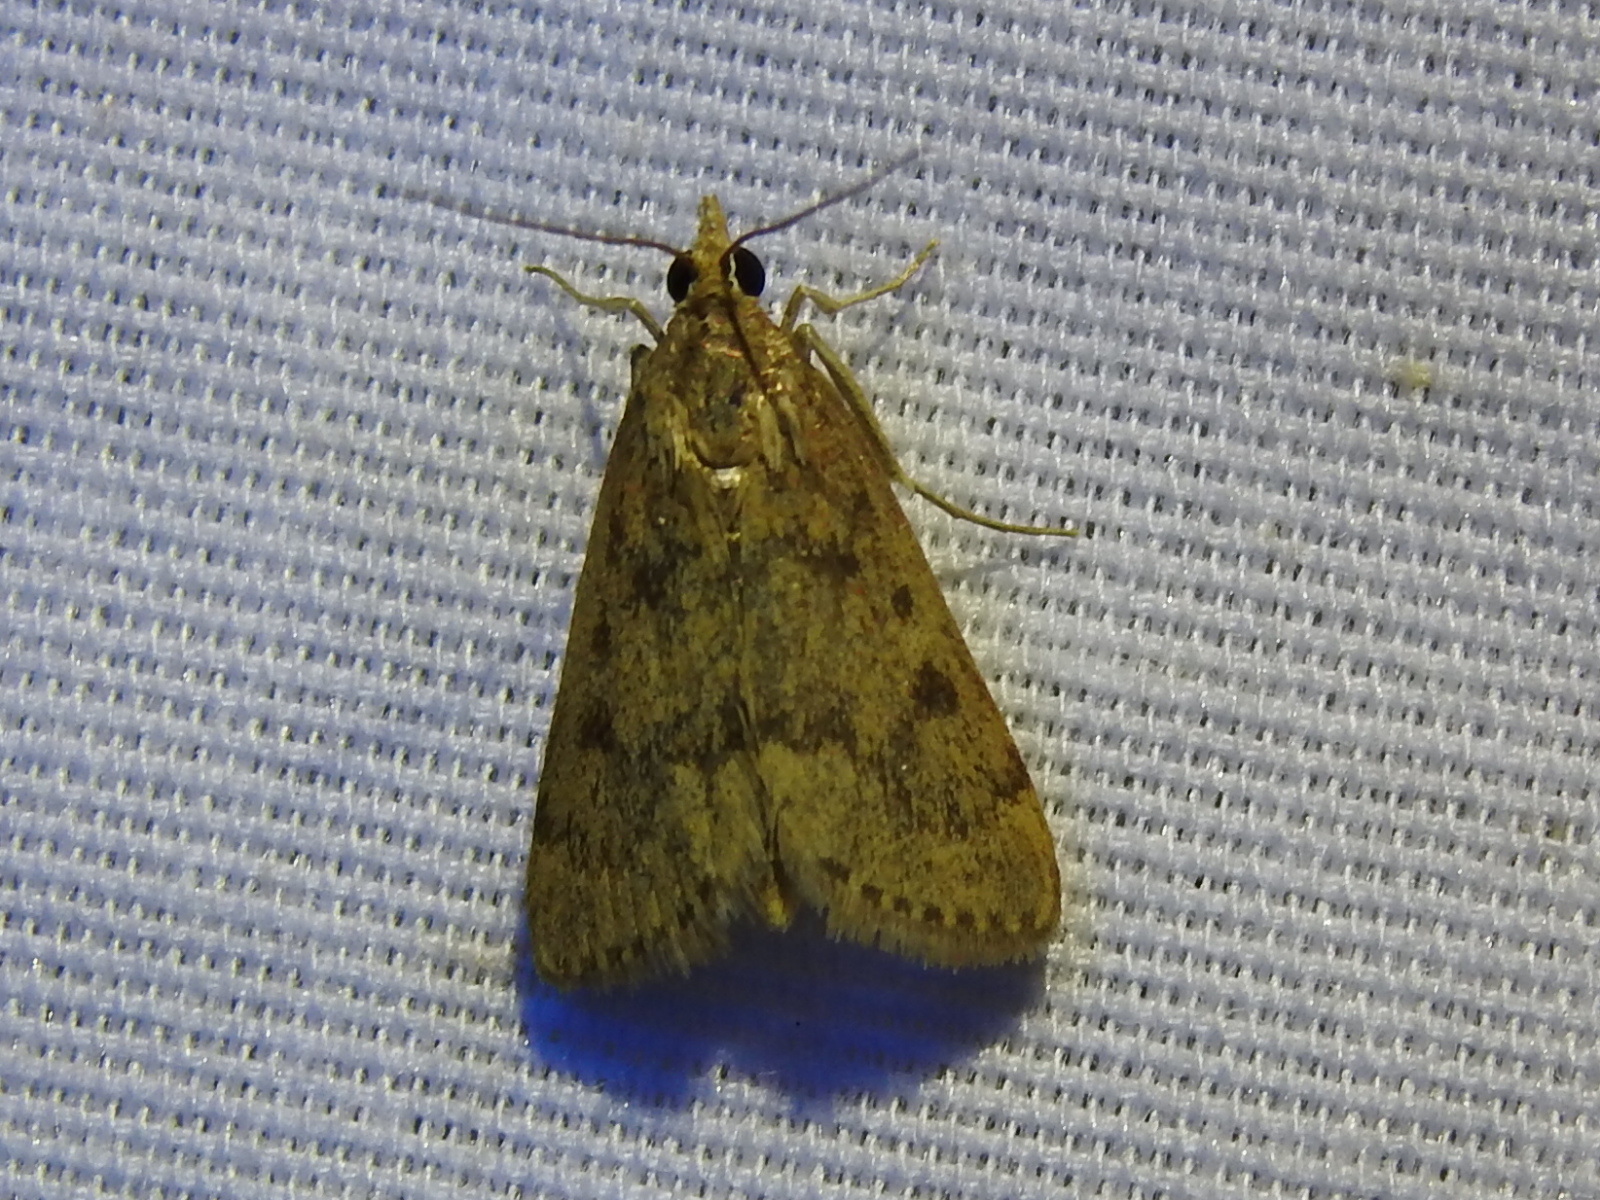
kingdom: Animalia
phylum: Arthropoda
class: Insecta
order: Lepidoptera
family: Crambidae
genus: Achyra
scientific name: Achyra rantalis
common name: Garden webworm
